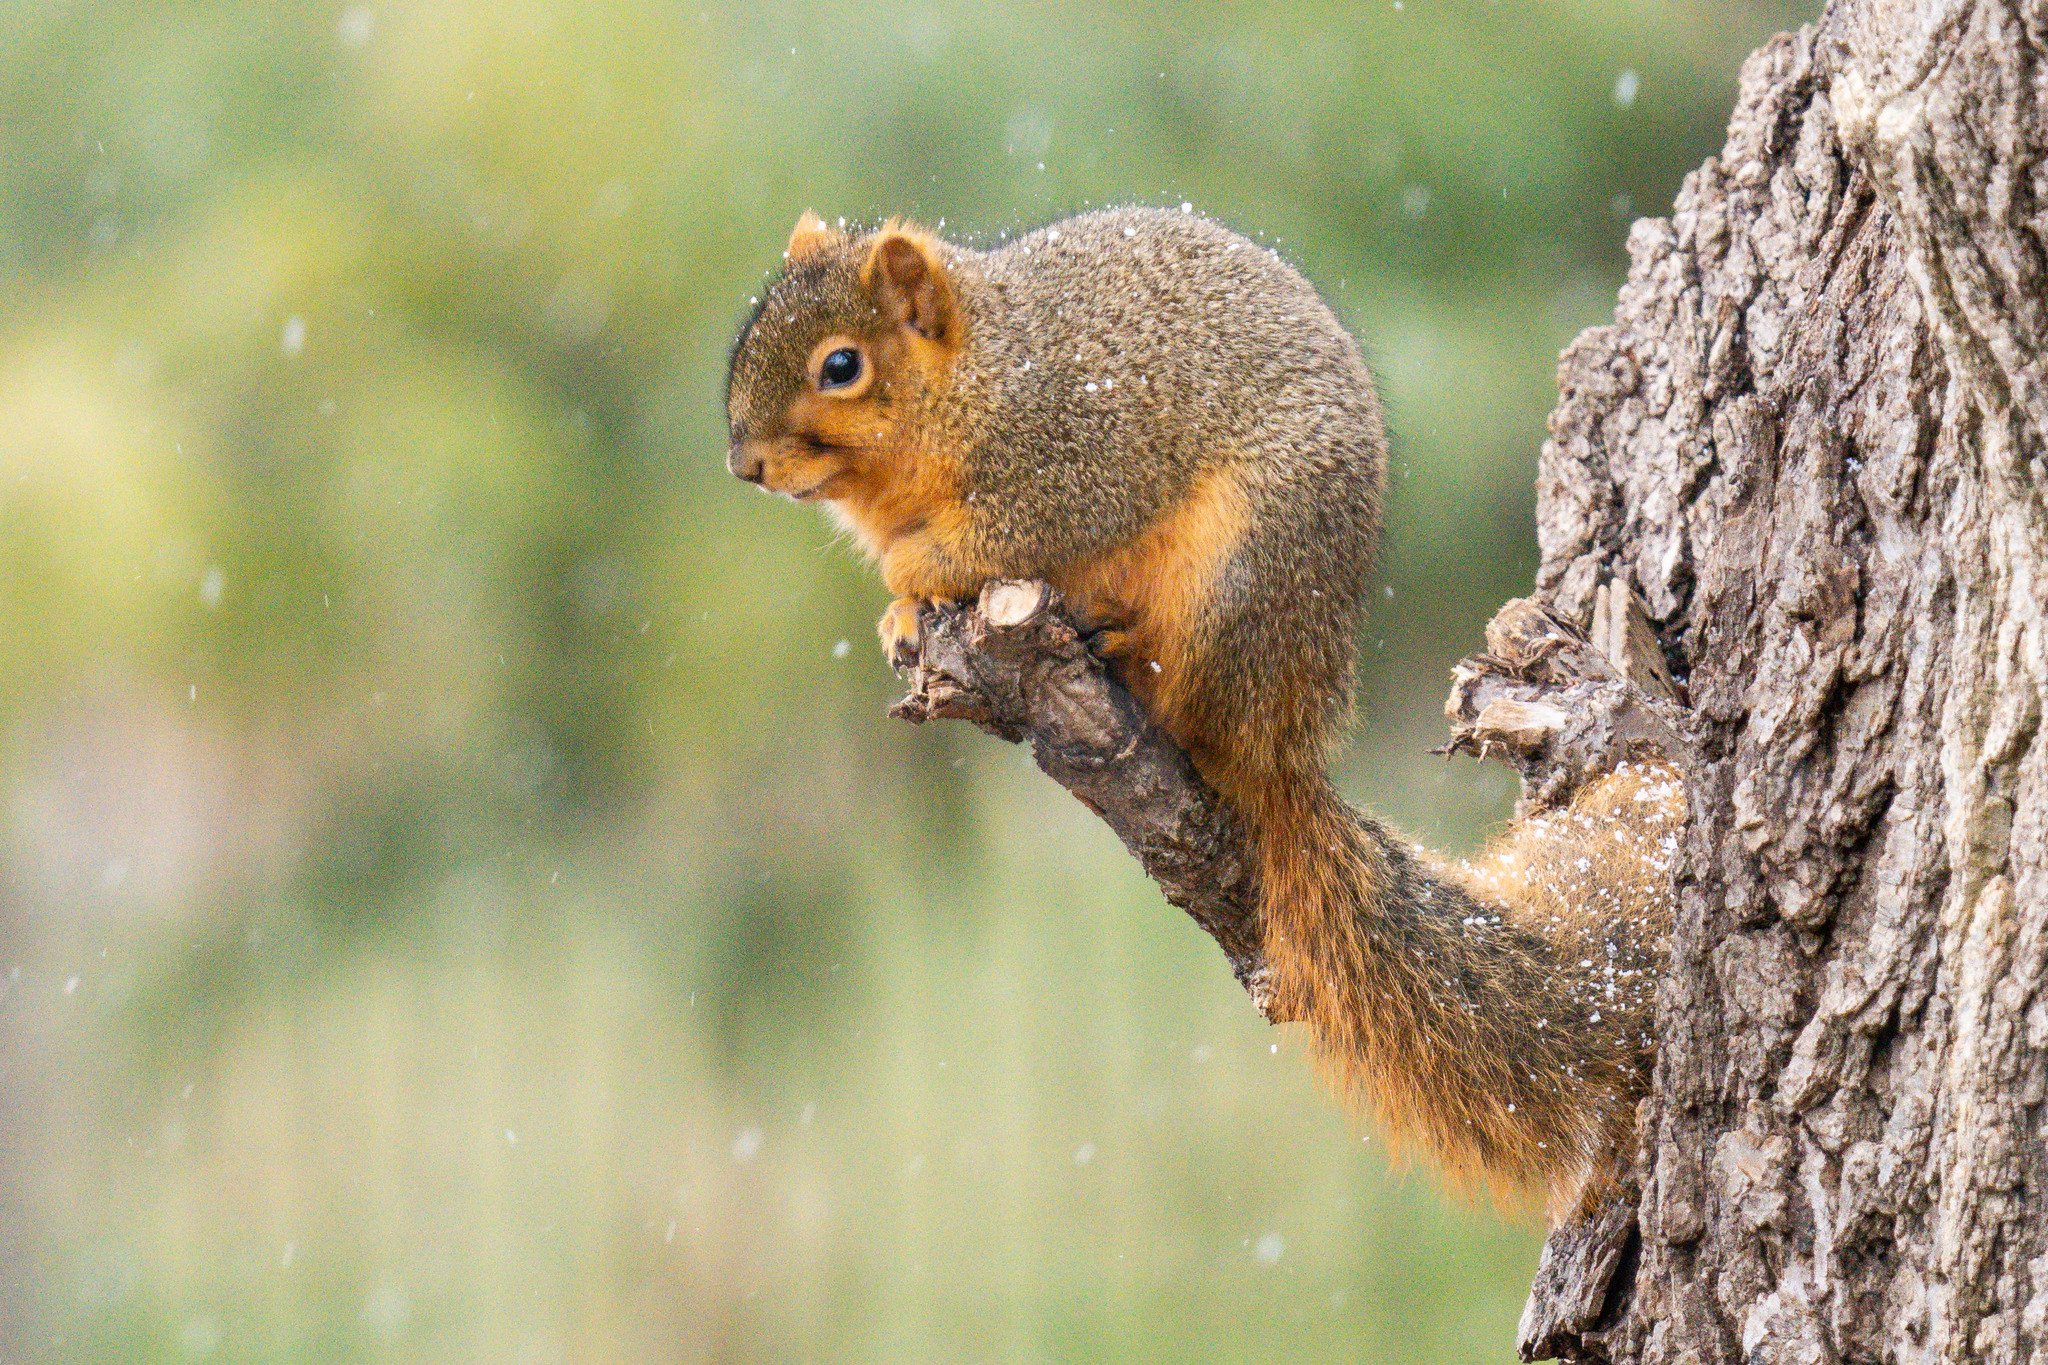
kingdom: Animalia
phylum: Chordata
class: Mammalia
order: Rodentia
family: Sciuridae
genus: Sciurus
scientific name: Sciurus niger
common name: Fox squirrel
